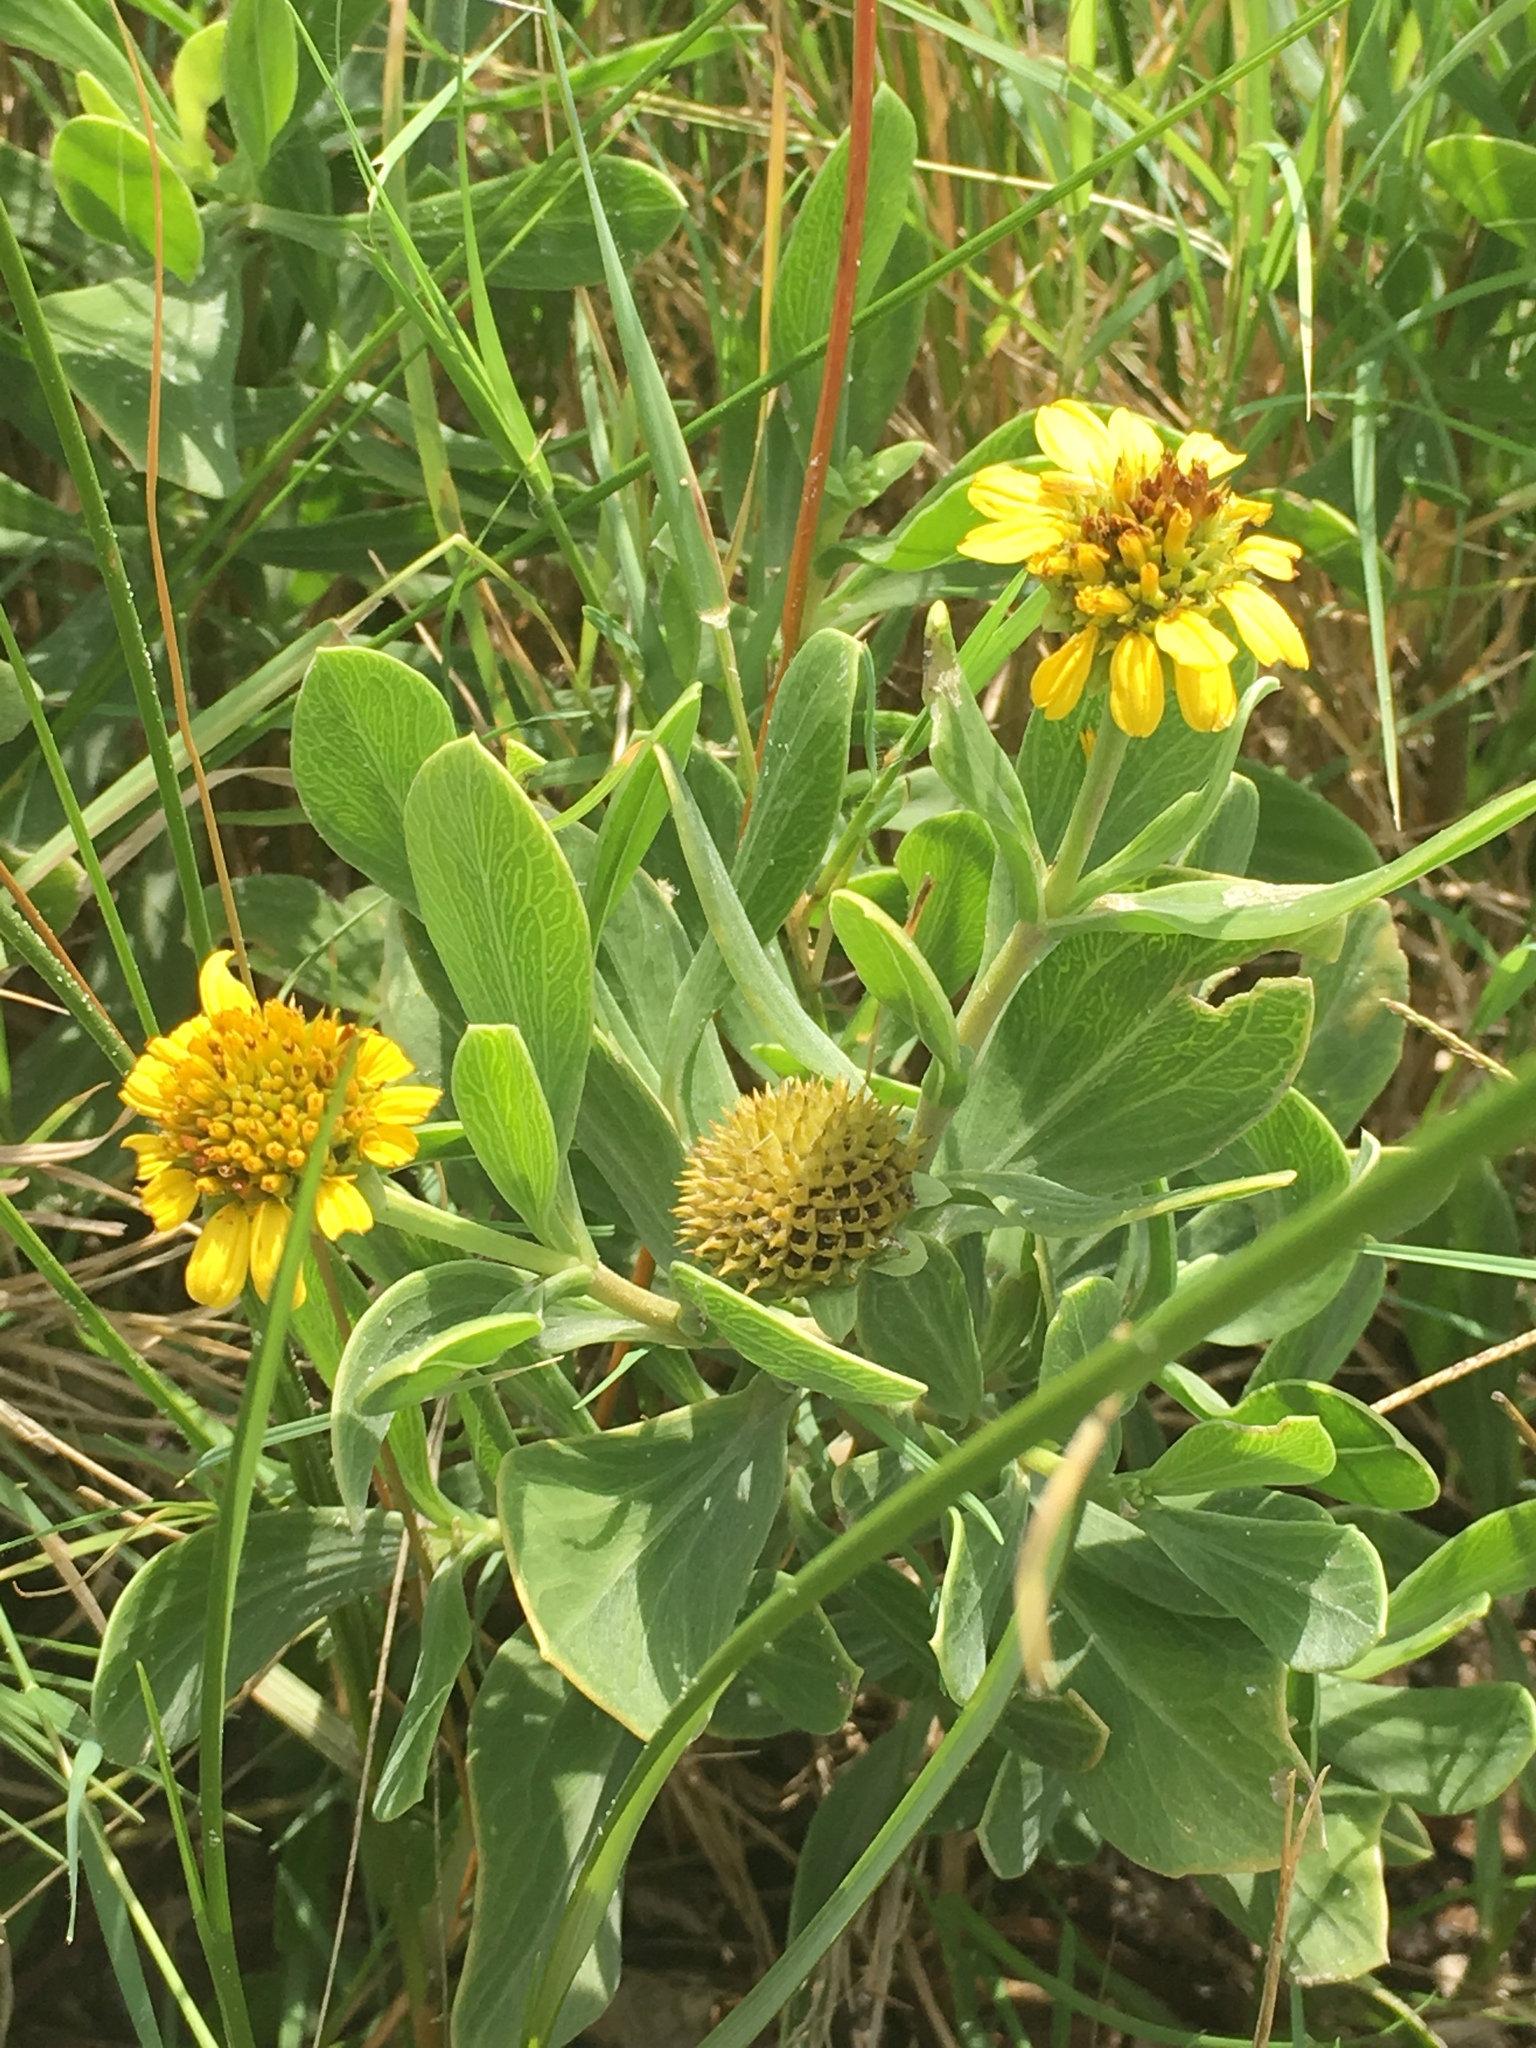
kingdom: Plantae
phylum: Tracheophyta
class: Magnoliopsida
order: Asterales
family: Asteraceae
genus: Borrichia
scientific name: Borrichia frutescens
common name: Sea oxeye
